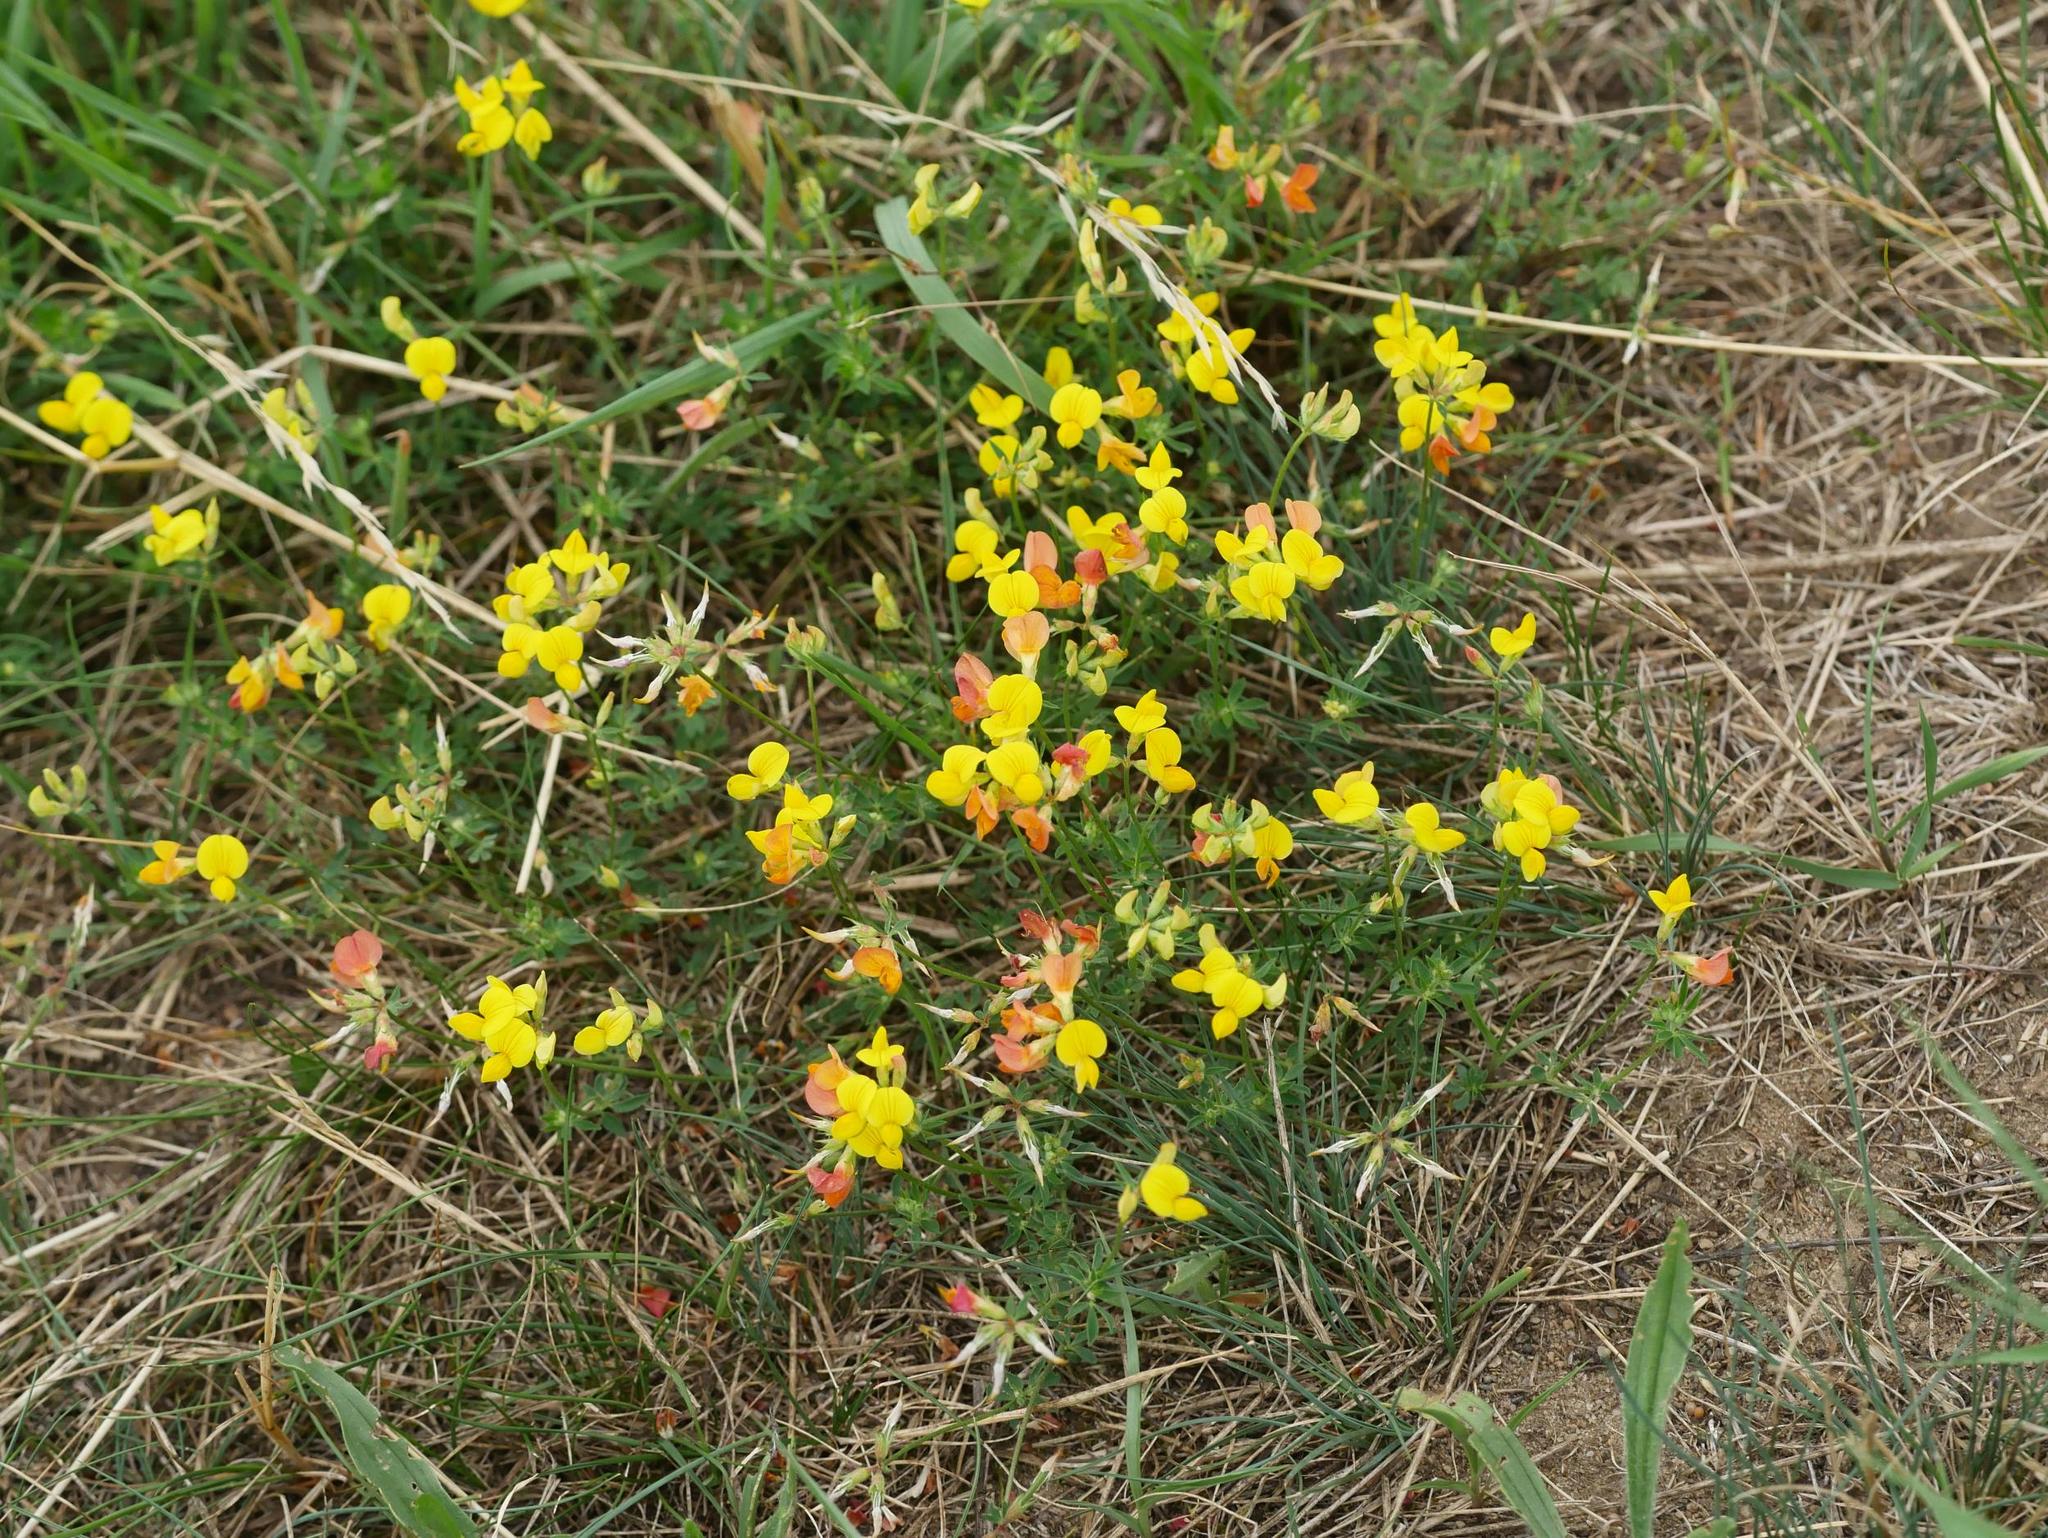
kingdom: Plantae
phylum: Tracheophyta
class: Magnoliopsida
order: Fabales
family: Fabaceae
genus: Lotus
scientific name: Lotus corniculatus
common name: Common bird's-foot-trefoil
